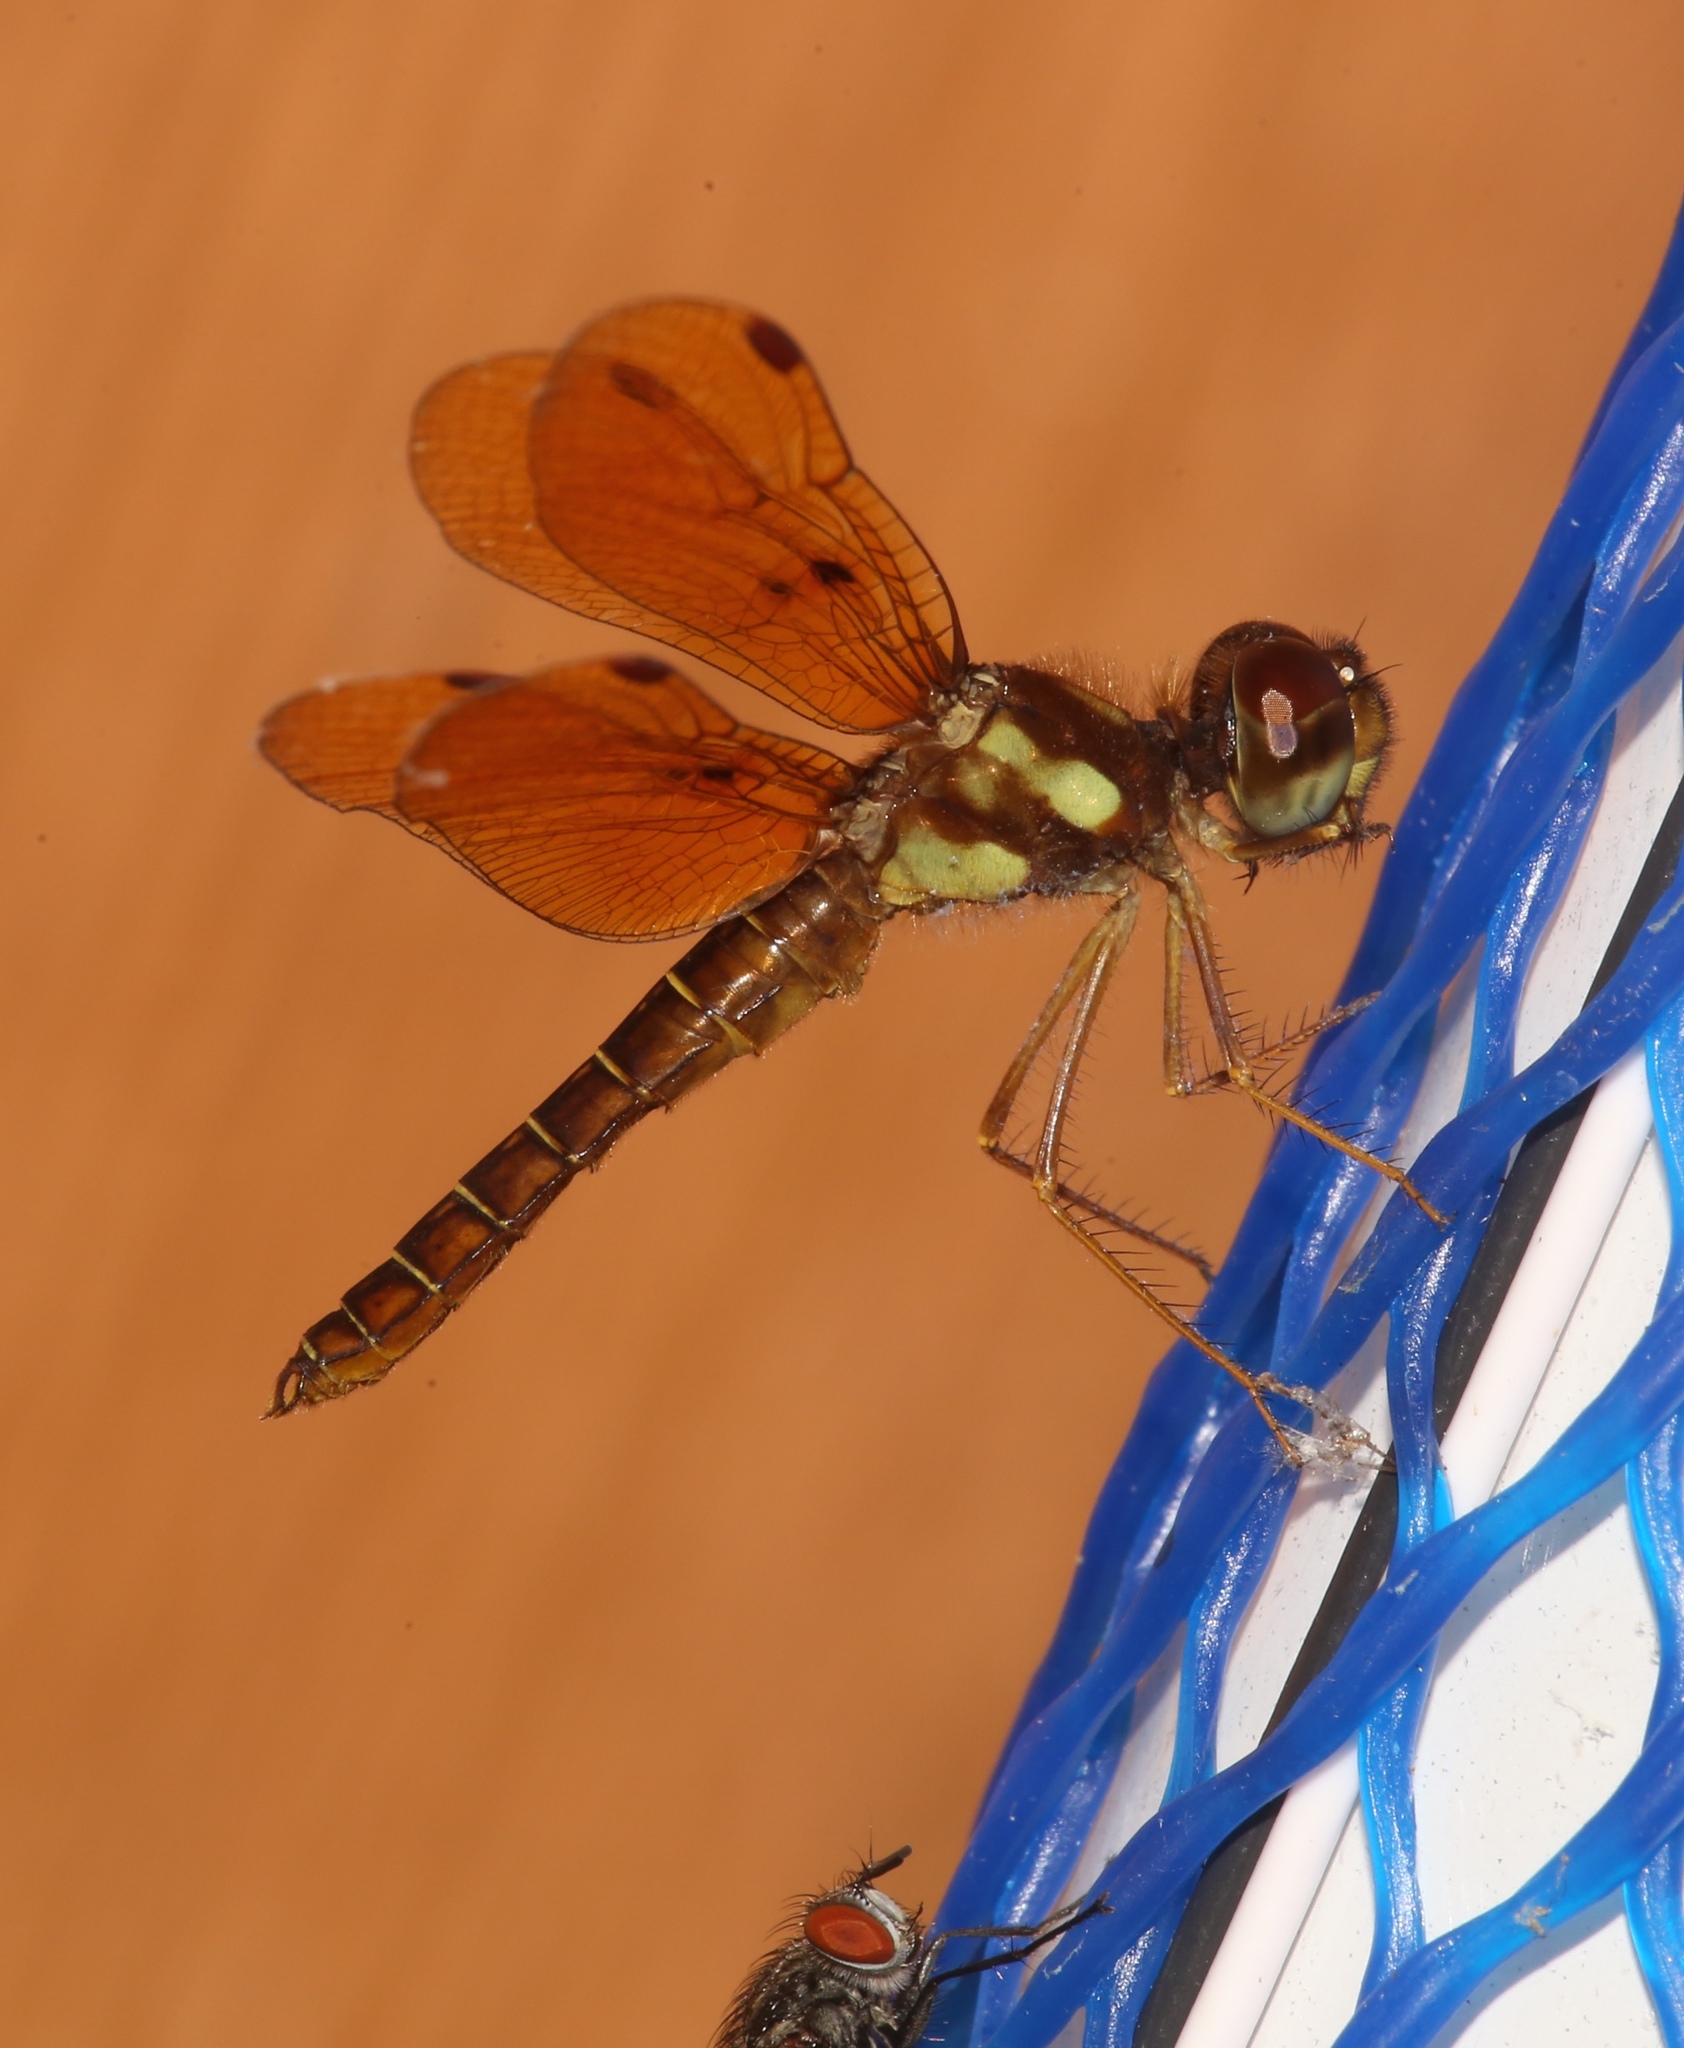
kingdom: Animalia
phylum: Arthropoda
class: Insecta
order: Odonata
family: Libellulidae
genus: Perithemis
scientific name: Perithemis tenera
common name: Eastern amberwing
